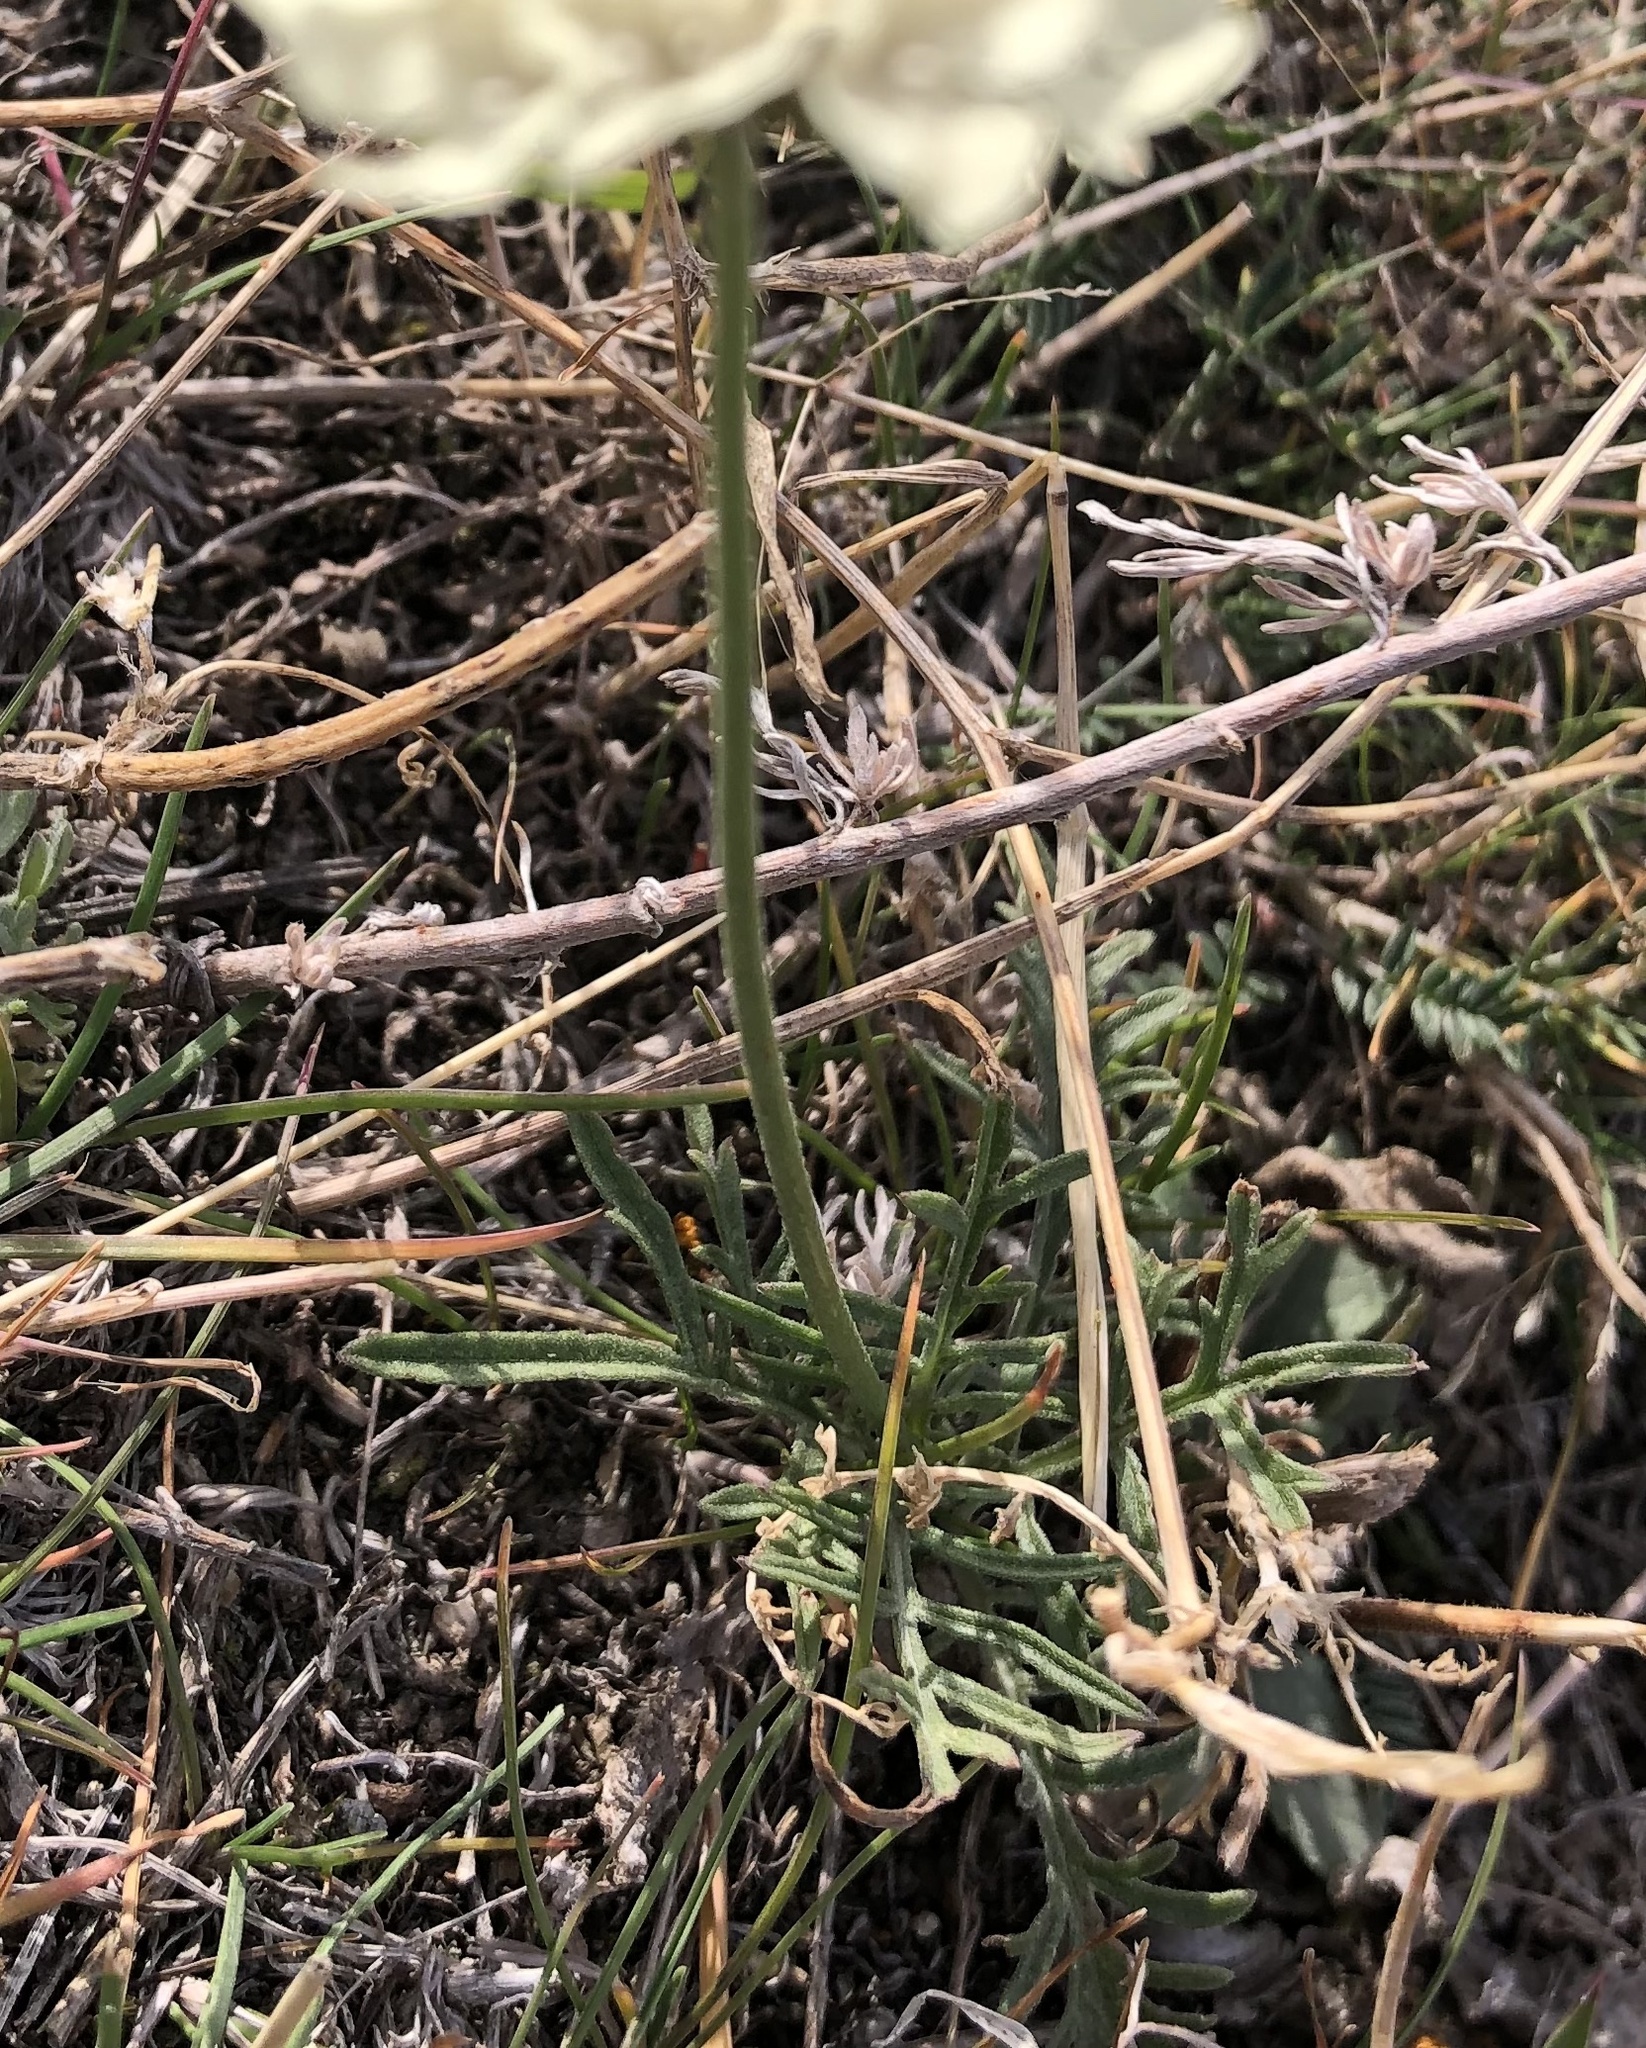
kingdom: Plantae
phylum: Tracheophyta
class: Magnoliopsida
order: Dipsacales
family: Caprifoliaceae
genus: Scabiosa
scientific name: Scabiosa ochroleuca
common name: Cream pincushions
